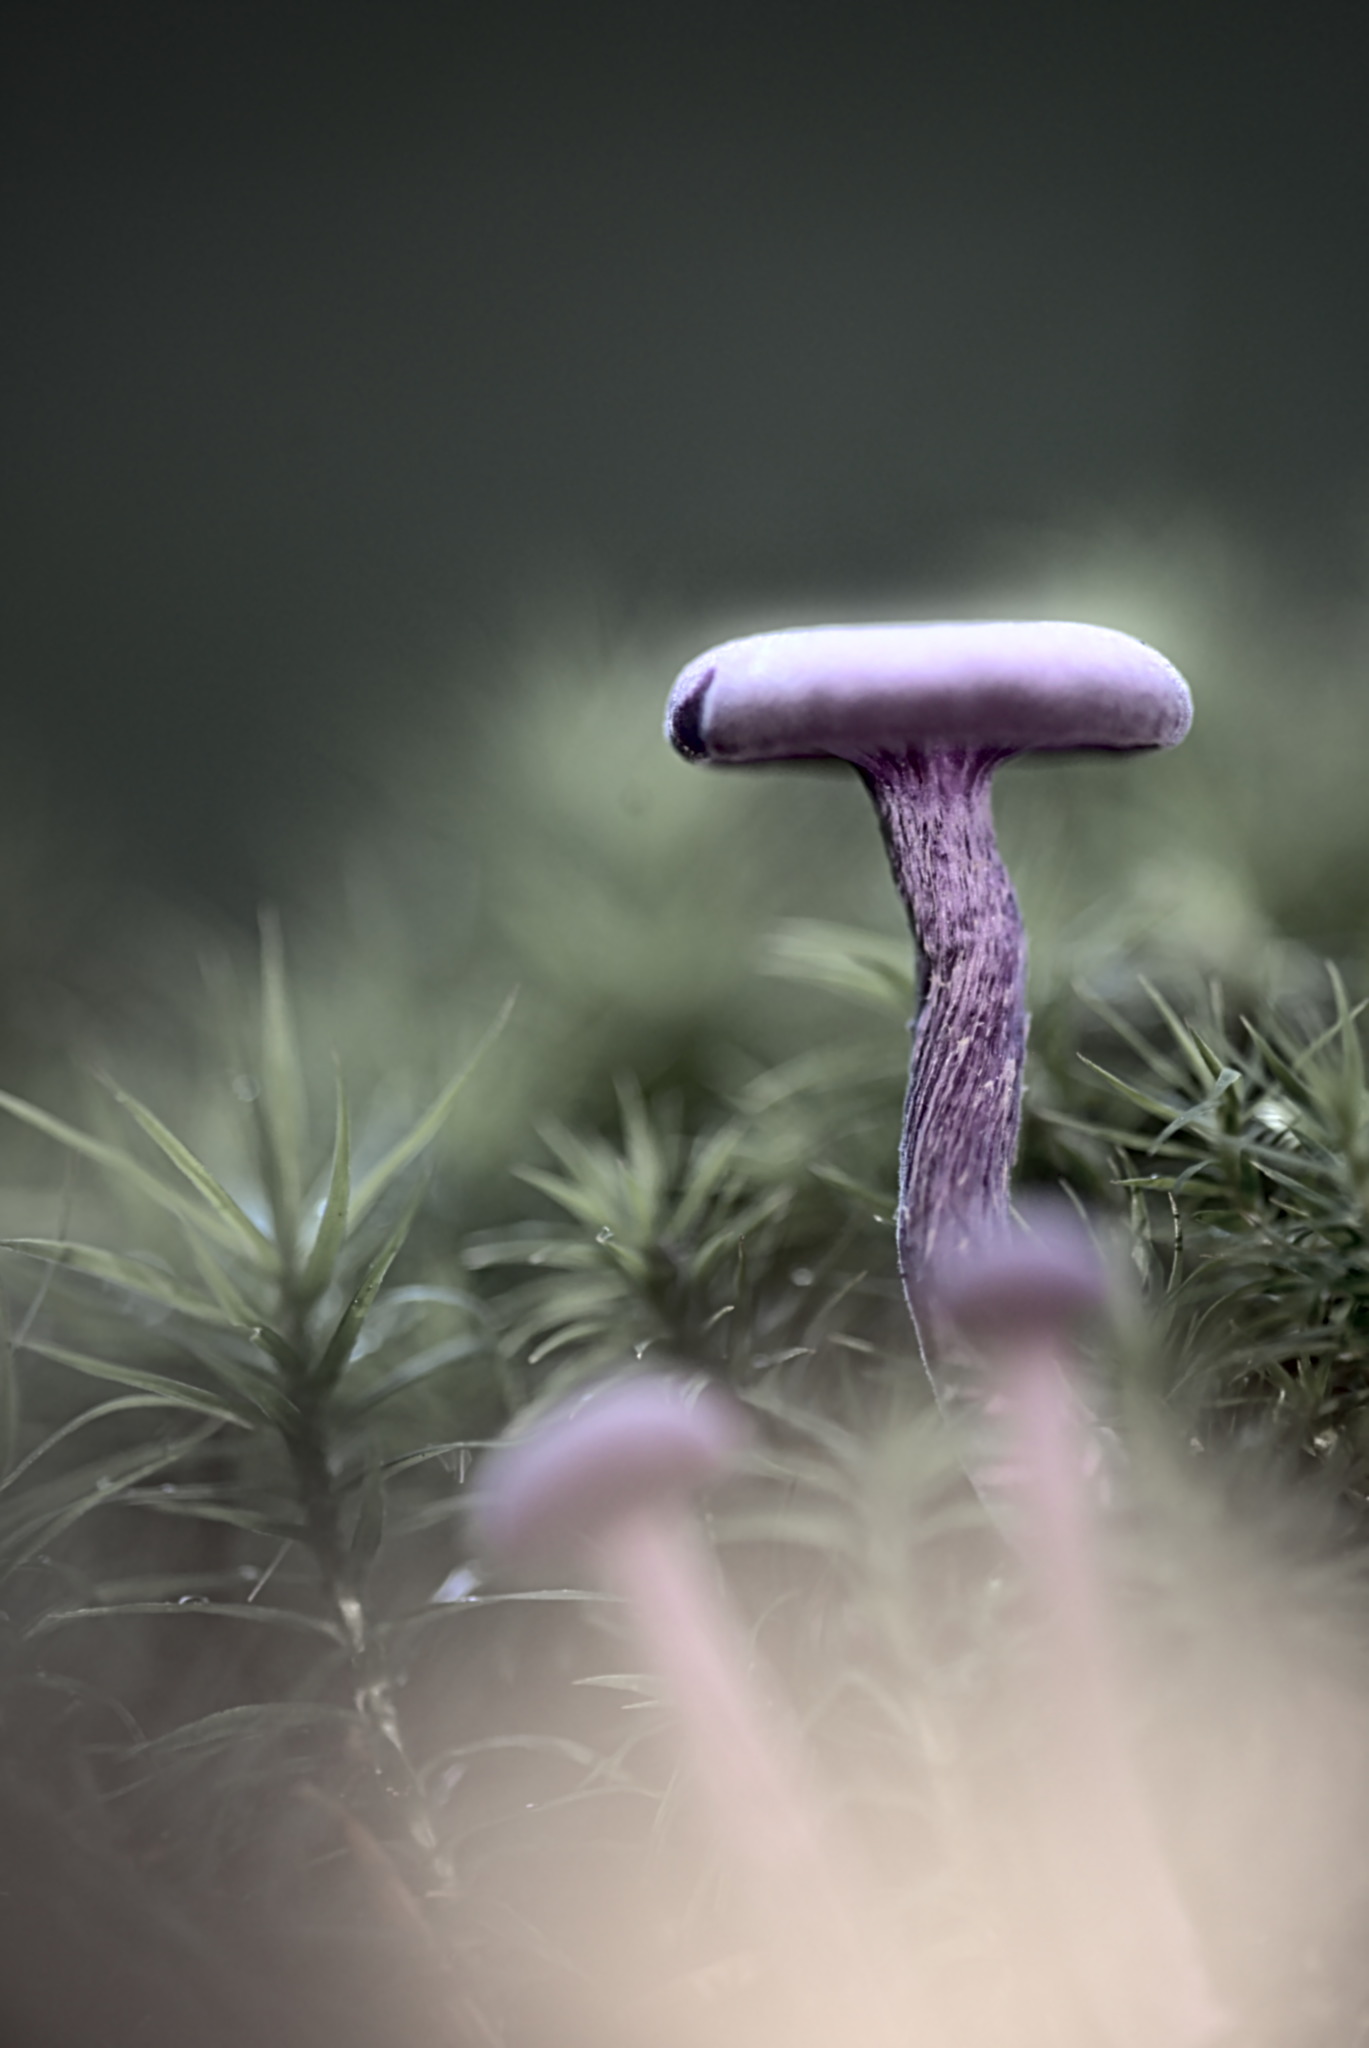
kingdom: Fungi
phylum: Basidiomycota
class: Agaricomycetes
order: Agaricales
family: Hydnangiaceae
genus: Laccaria
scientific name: Laccaria amethystina
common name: Amethyst deceiver
